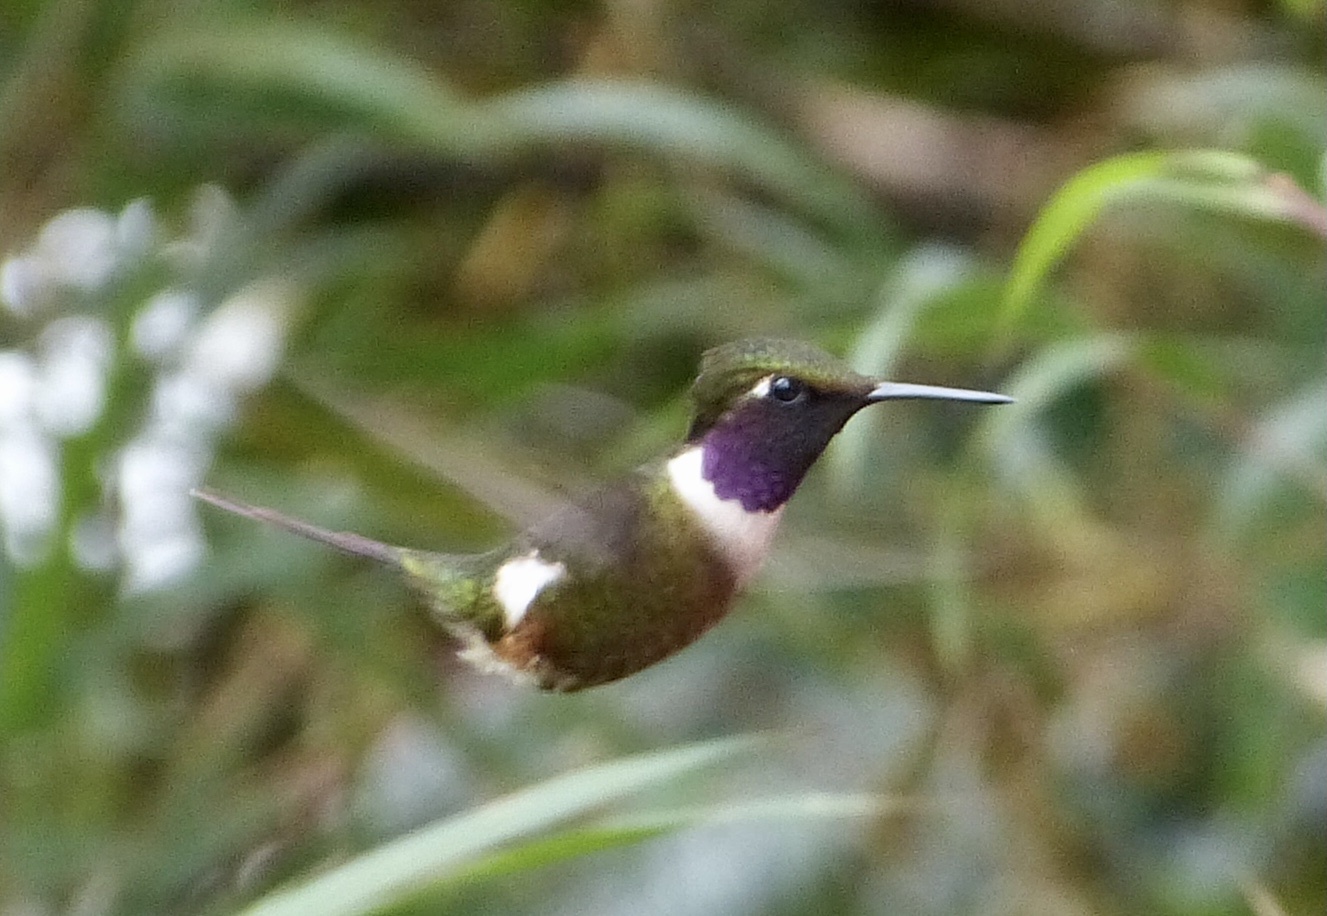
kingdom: Animalia
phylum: Chordata
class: Aves
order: Apodiformes
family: Trochilidae
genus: Calliphlox
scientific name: Calliphlox mitchellii
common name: Purple-throated woodstar
